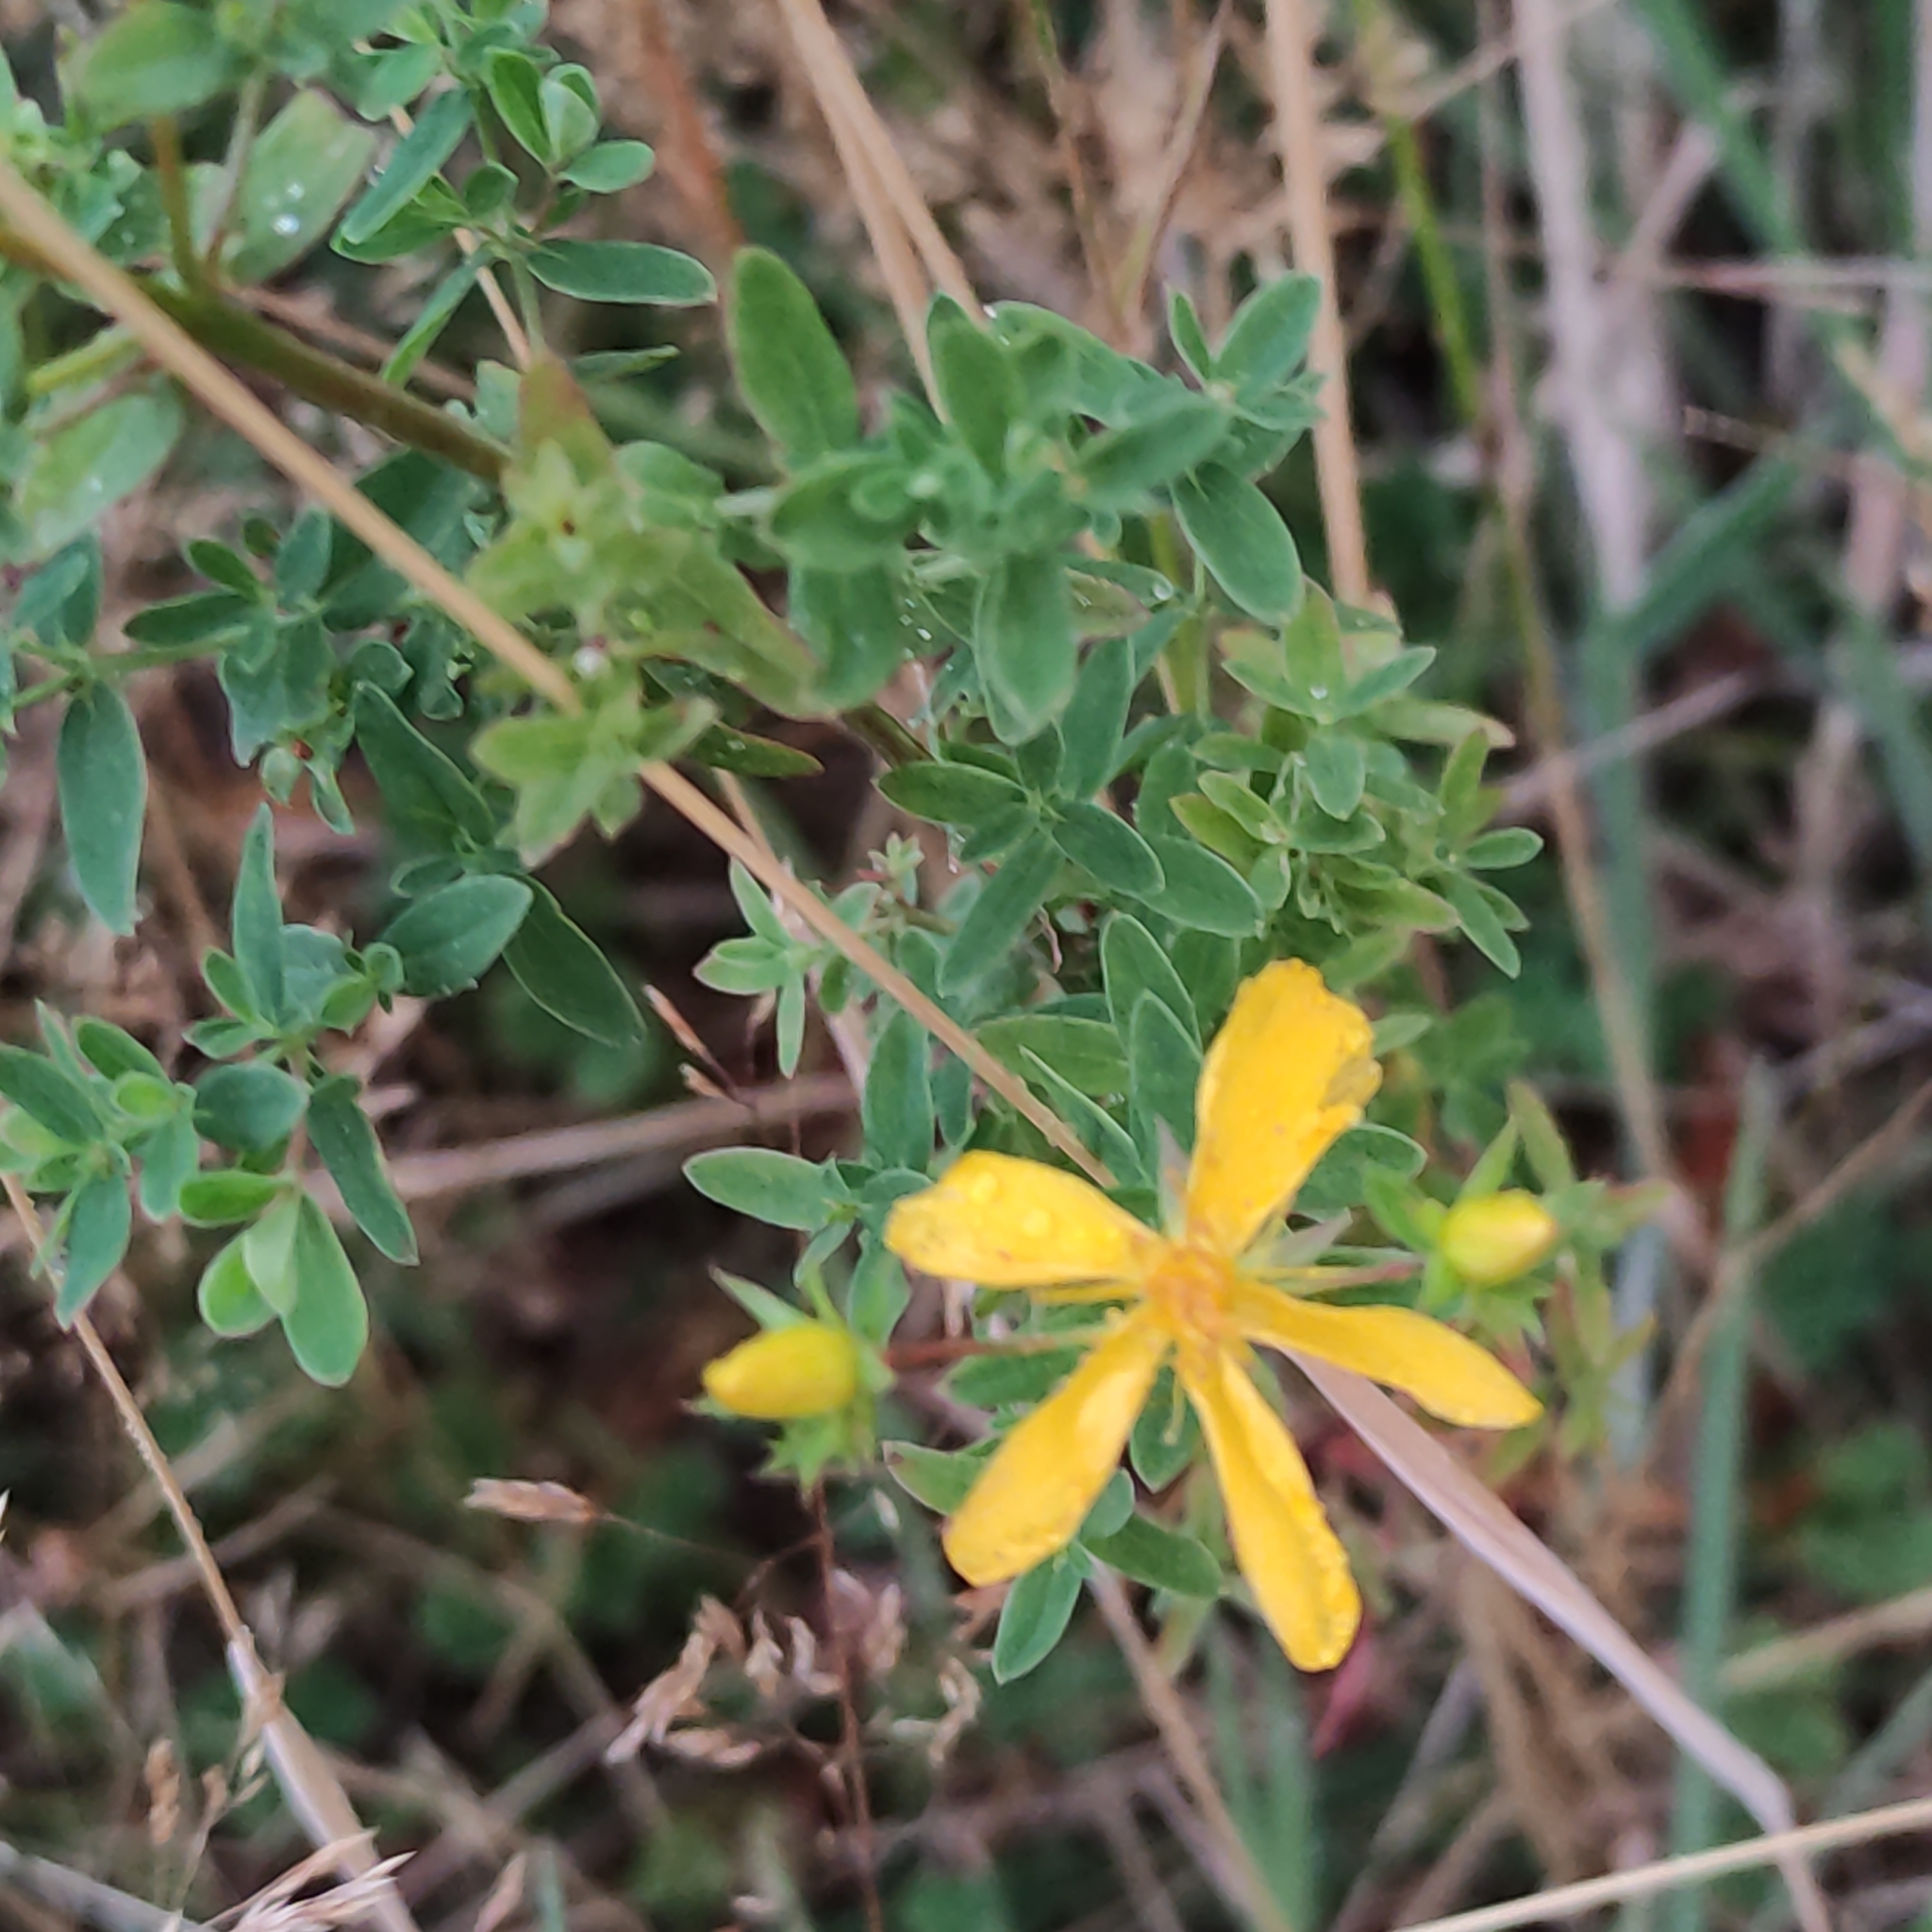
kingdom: Plantae
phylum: Tracheophyta
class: Magnoliopsida
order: Malpighiales
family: Hypericaceae
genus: Hypericum
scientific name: Hypericum perforatum
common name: Common st. johnswort
